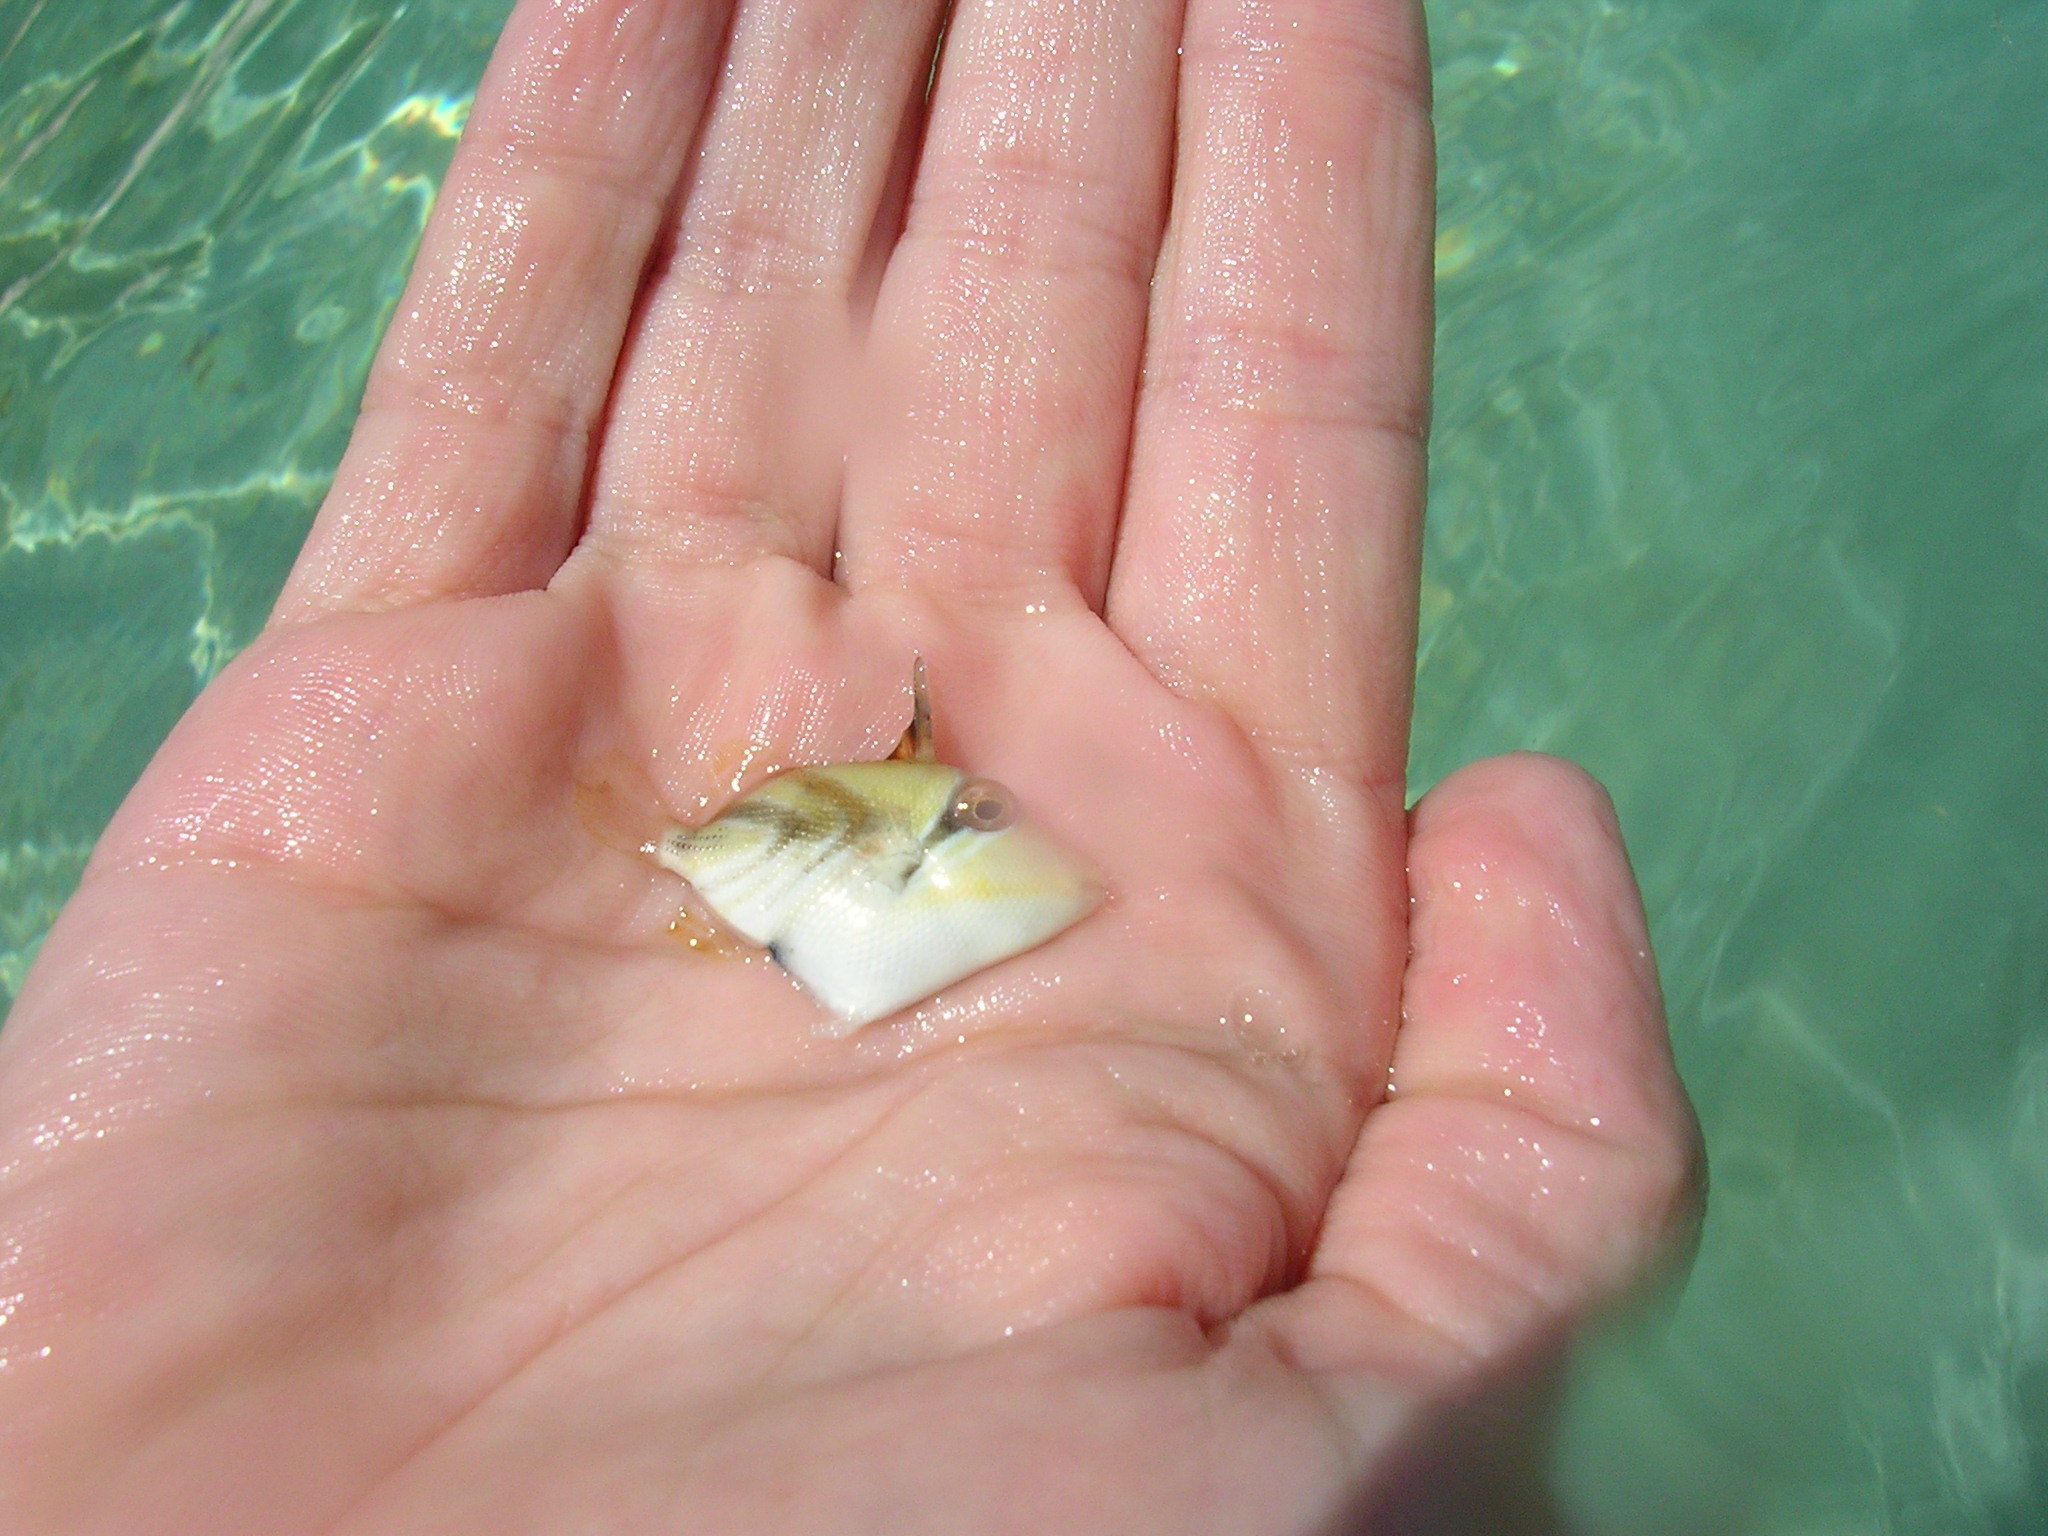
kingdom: Animalia
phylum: Chordata
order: Tetraodontiformes
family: Balistidae
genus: Rhinecanthus
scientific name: Rhinecanthus aculeatus
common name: White-banded triggerfish
